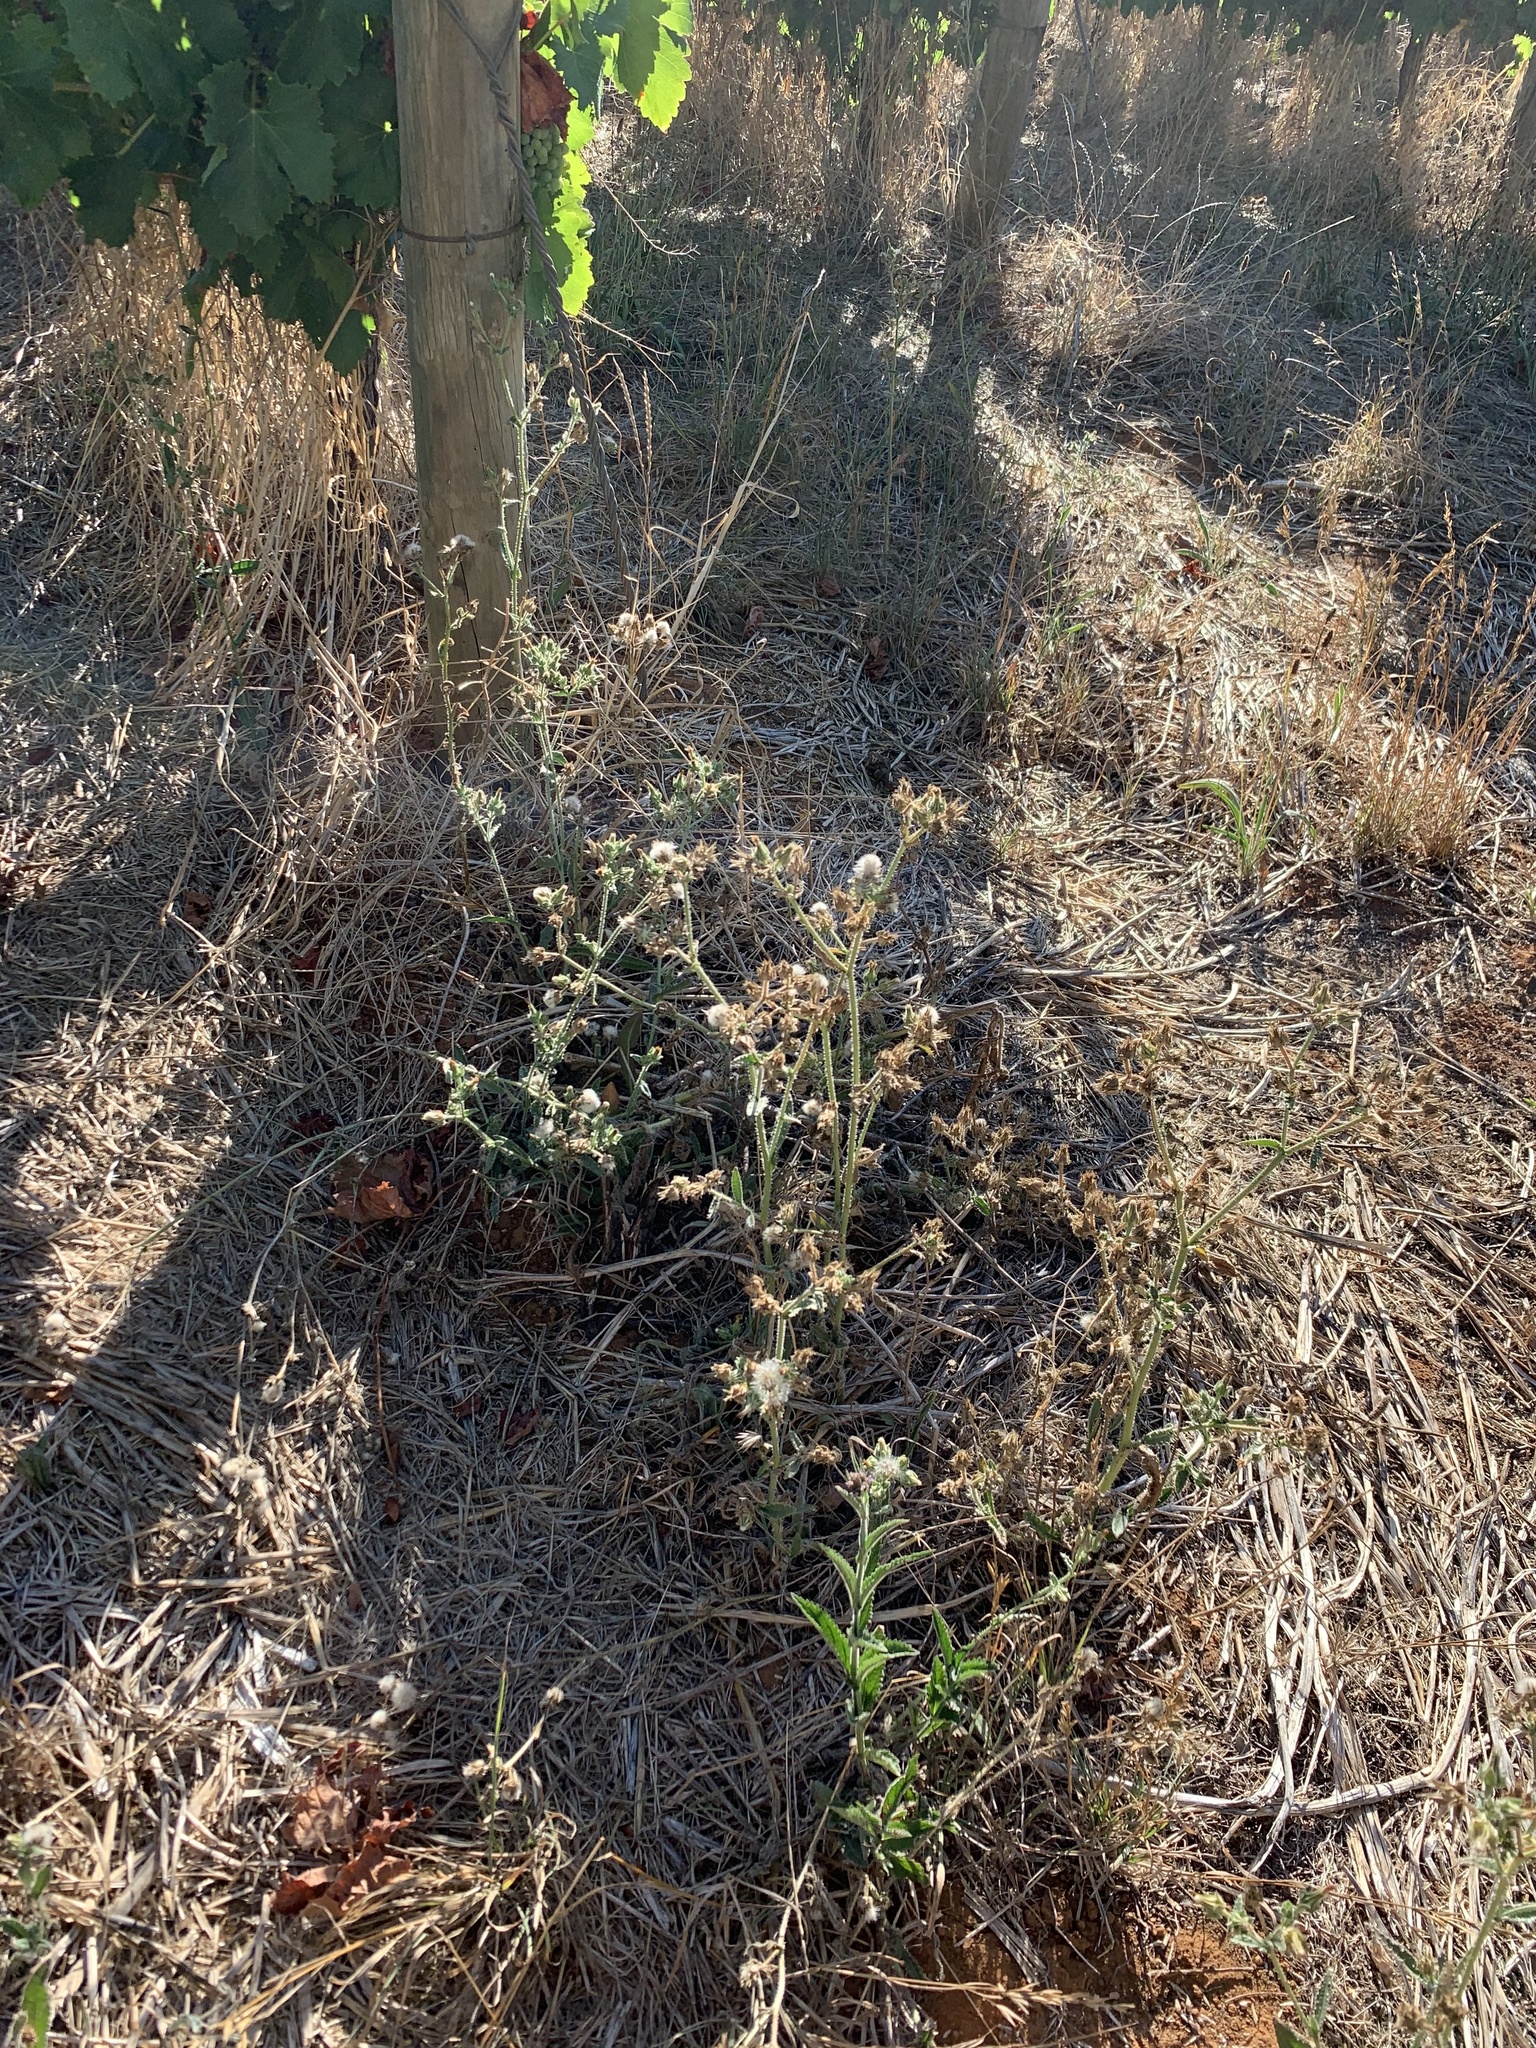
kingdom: Plantae
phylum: Tracheophyta
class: Magnoliopsida
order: Asterales
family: Asteraceae
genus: Helminthotheca
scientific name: Helminthotheca echioides
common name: Ox-tongue
